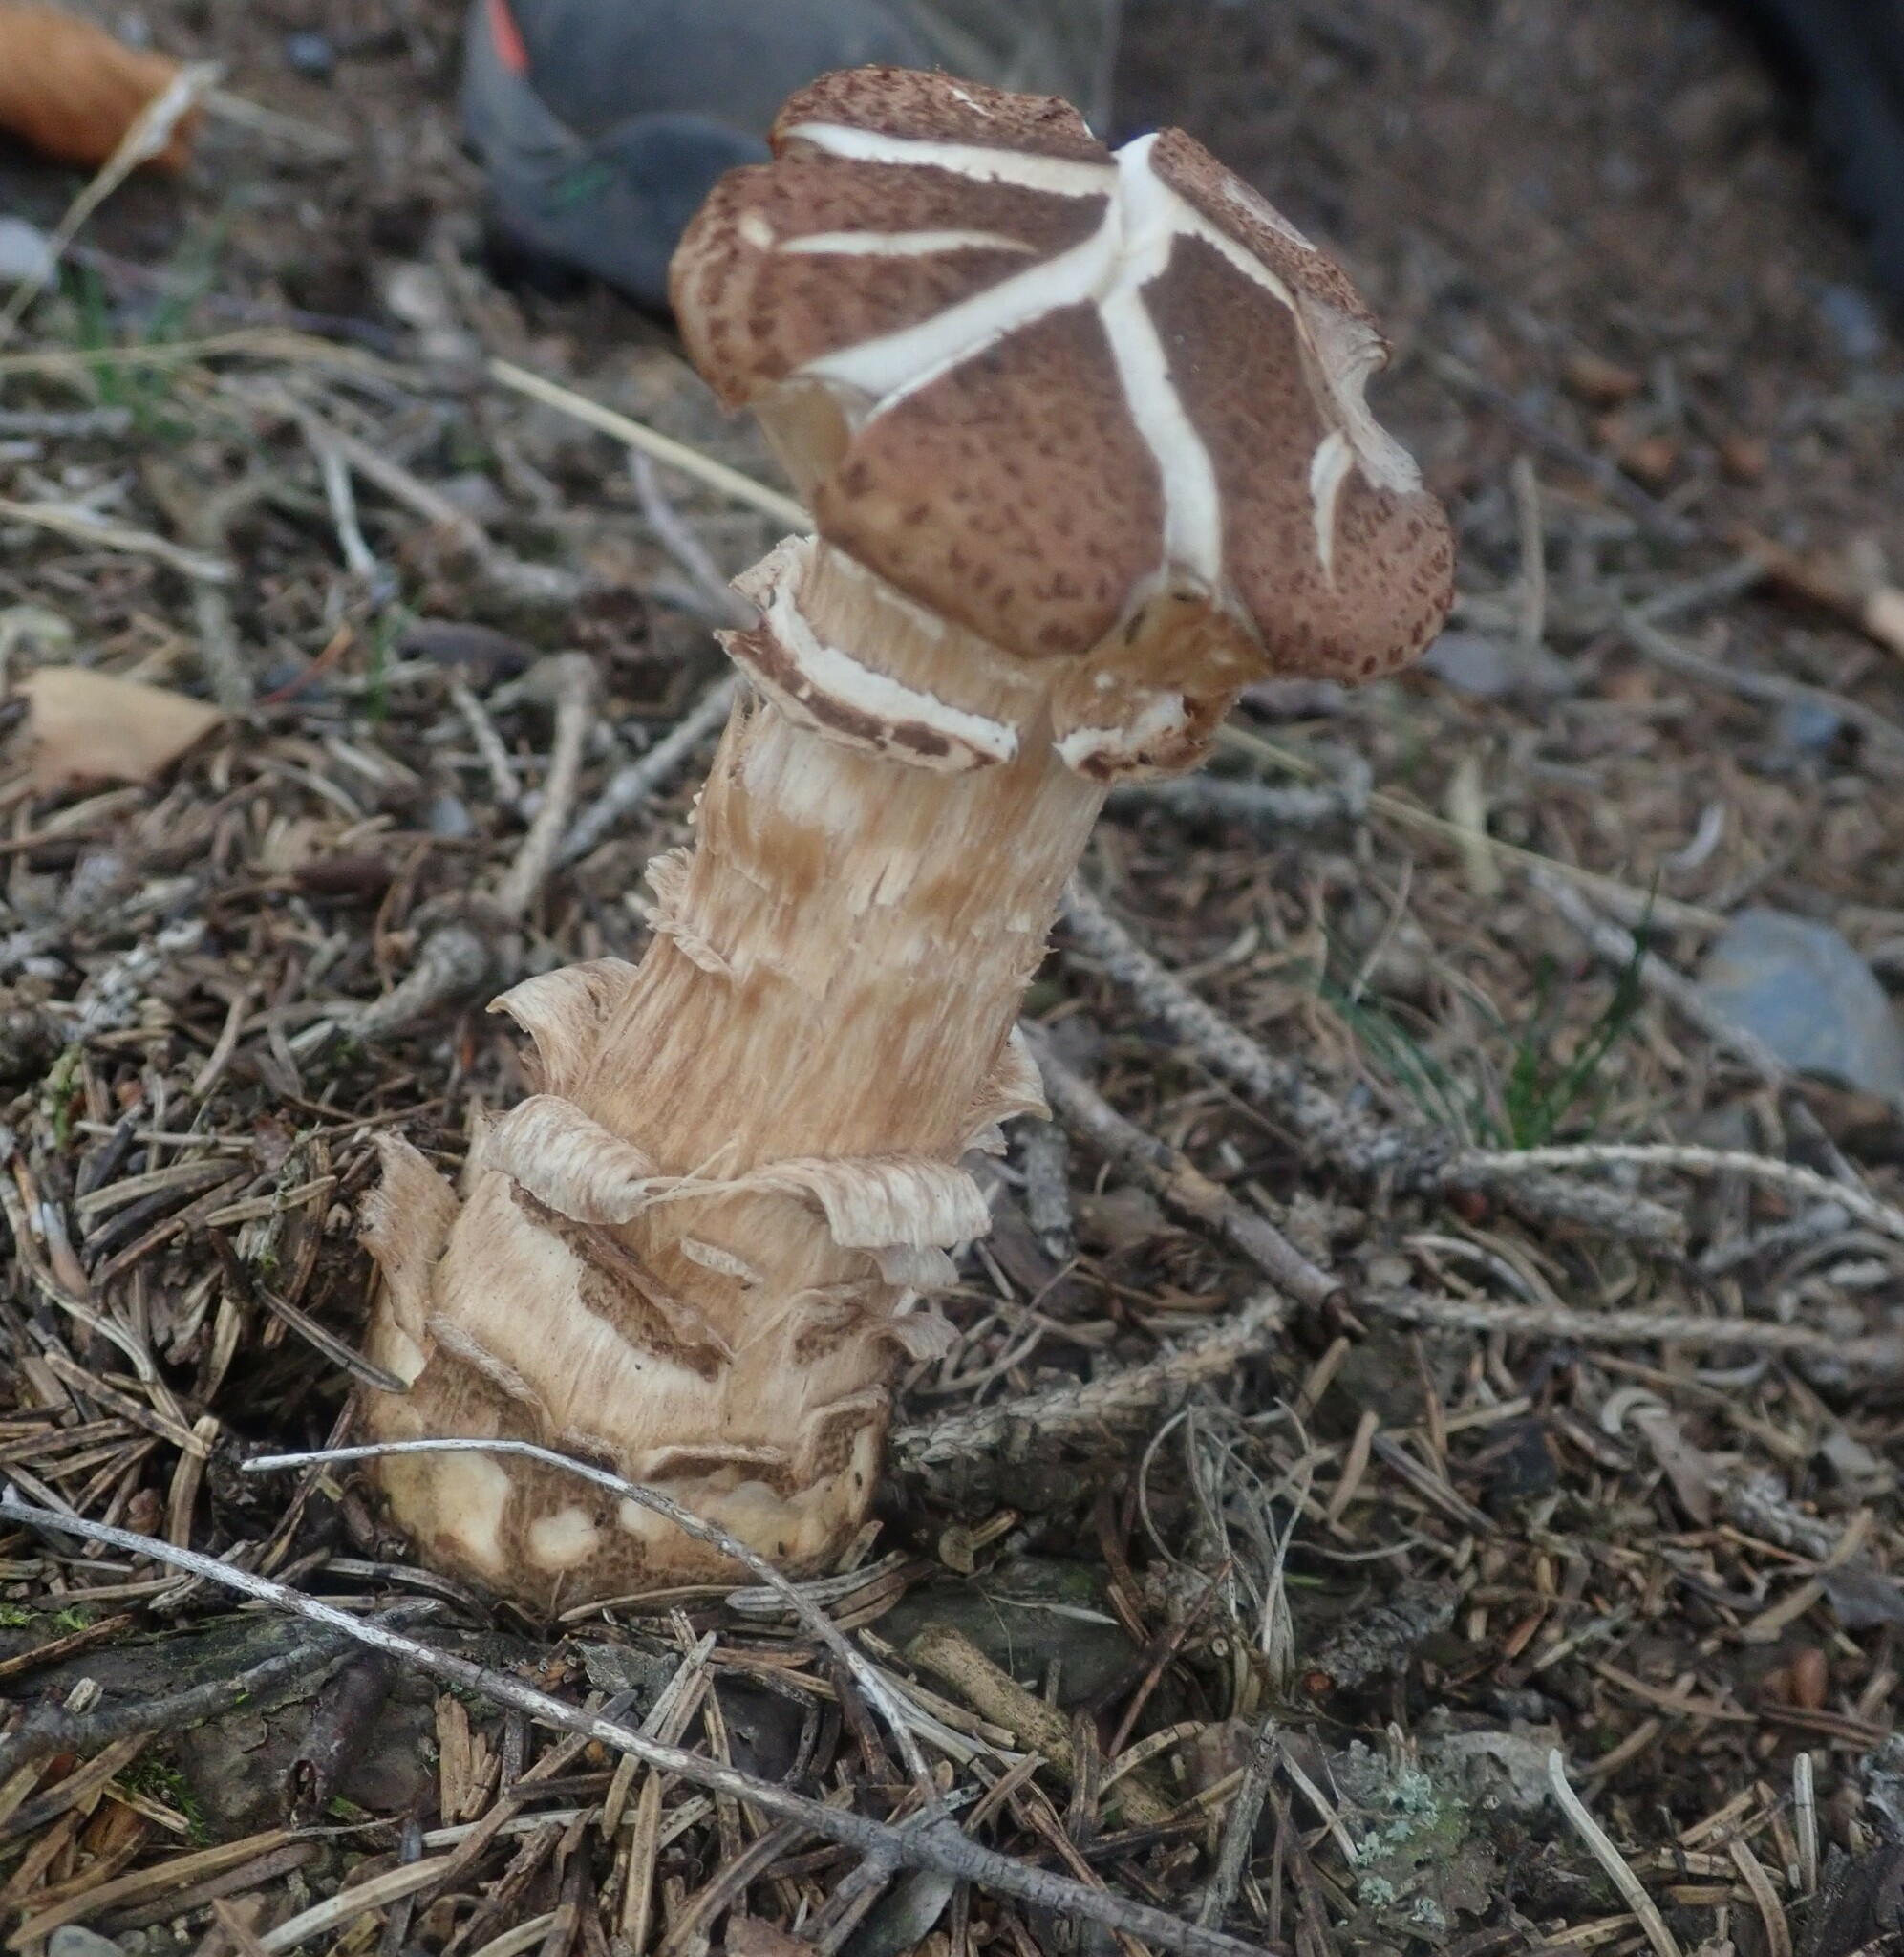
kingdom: Fungi
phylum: Basidiomycota
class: Agaricomycetes
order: Agaricales
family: Physalacriaceae
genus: Armillaria
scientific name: Armillaria ostoyae
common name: Dark honey fungus
